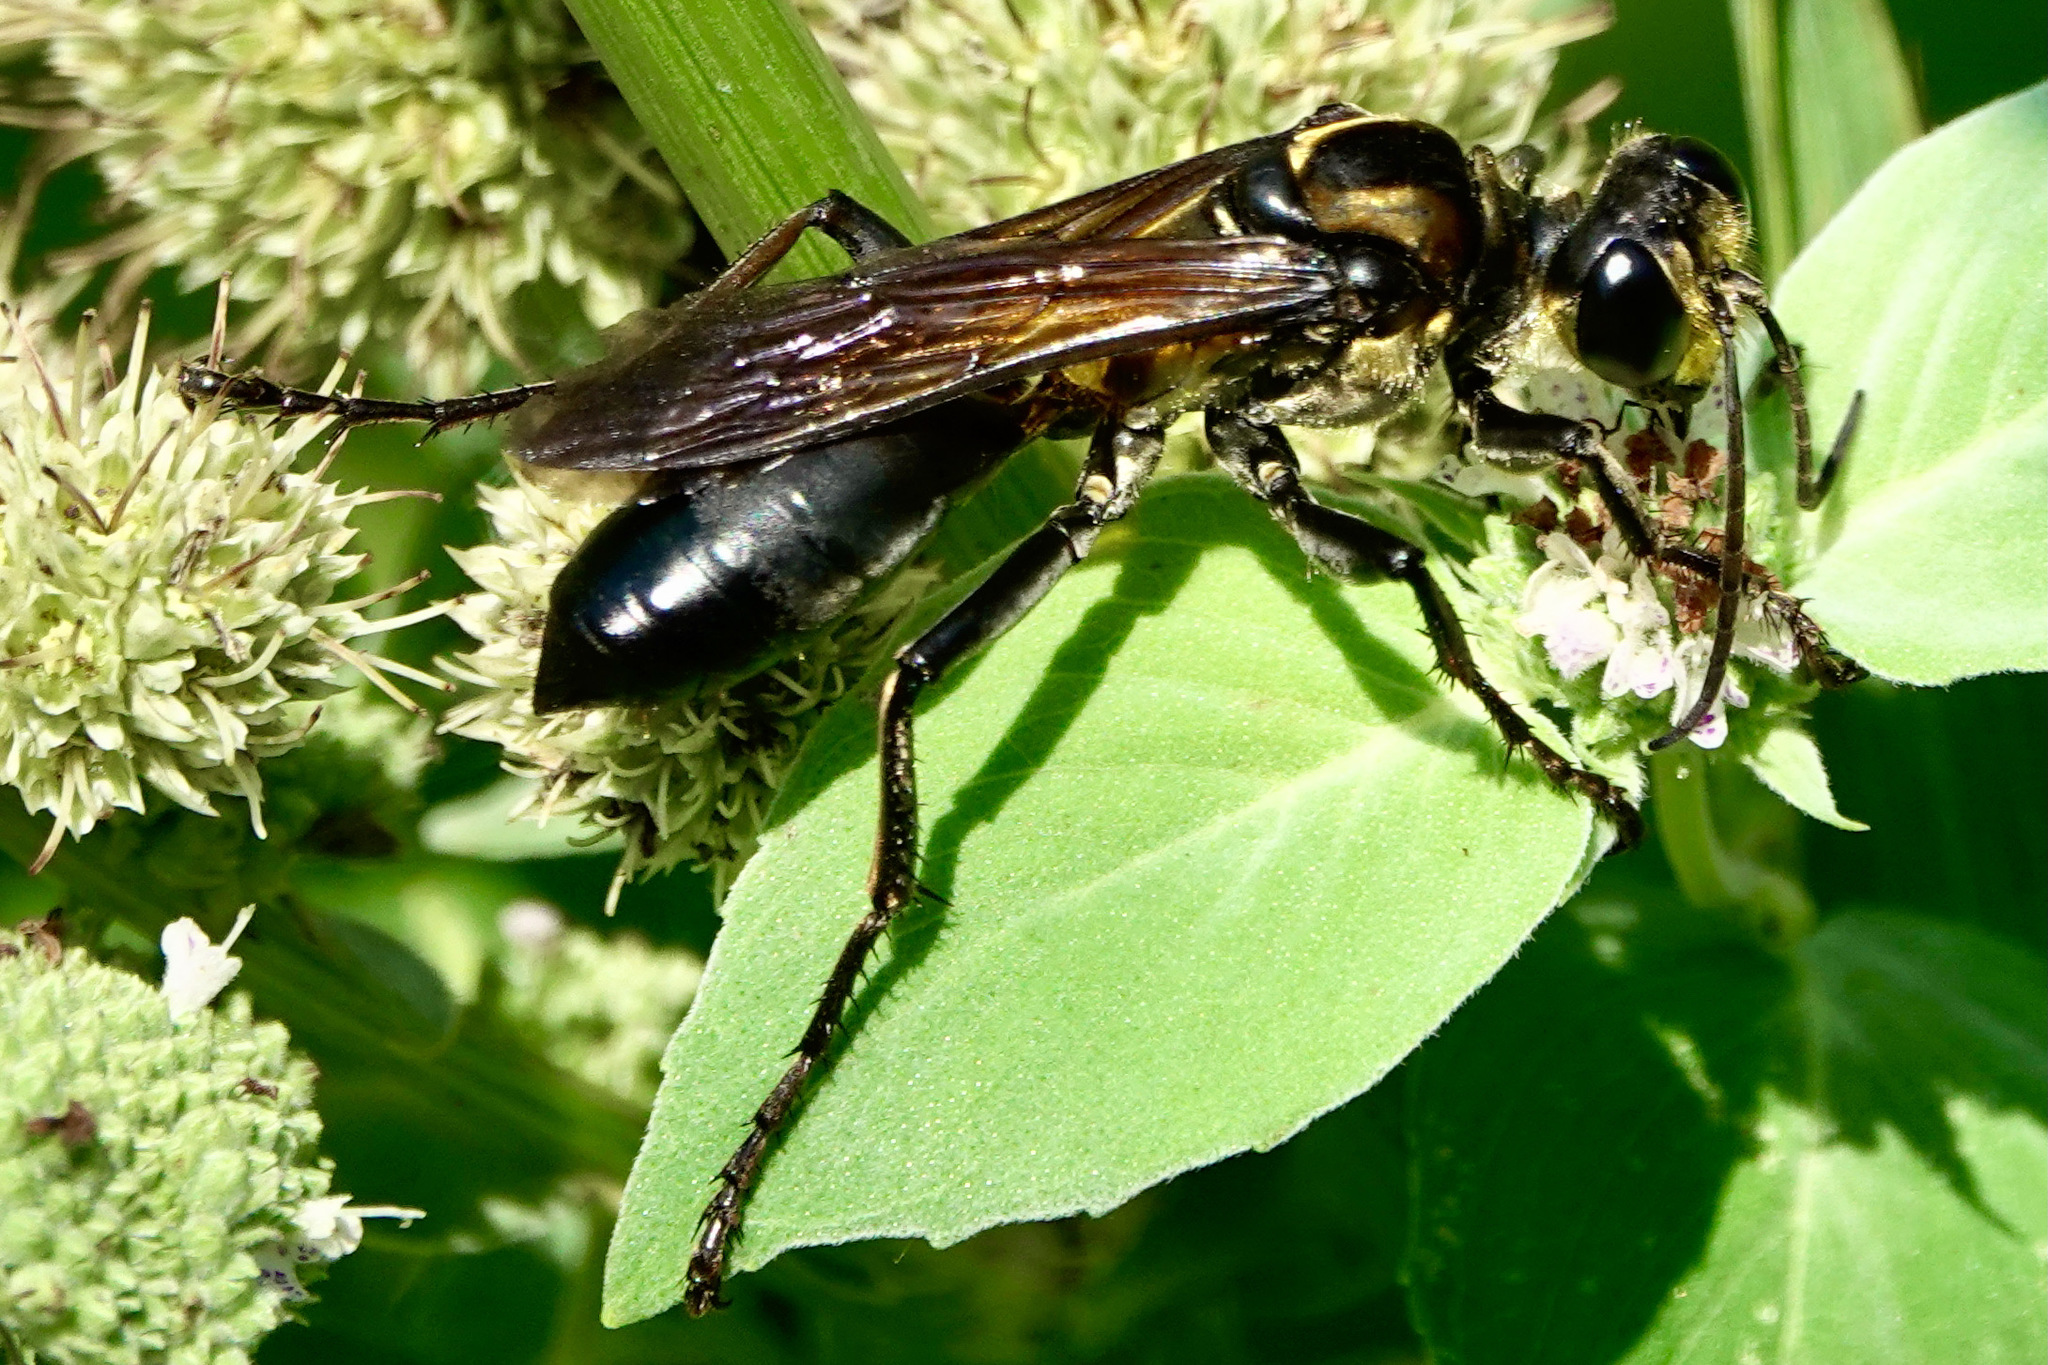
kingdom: Animalia
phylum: Arthropoda
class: Insecta
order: Hymenoptera
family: Sphecidae
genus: Sphex
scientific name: Sphex habenus
